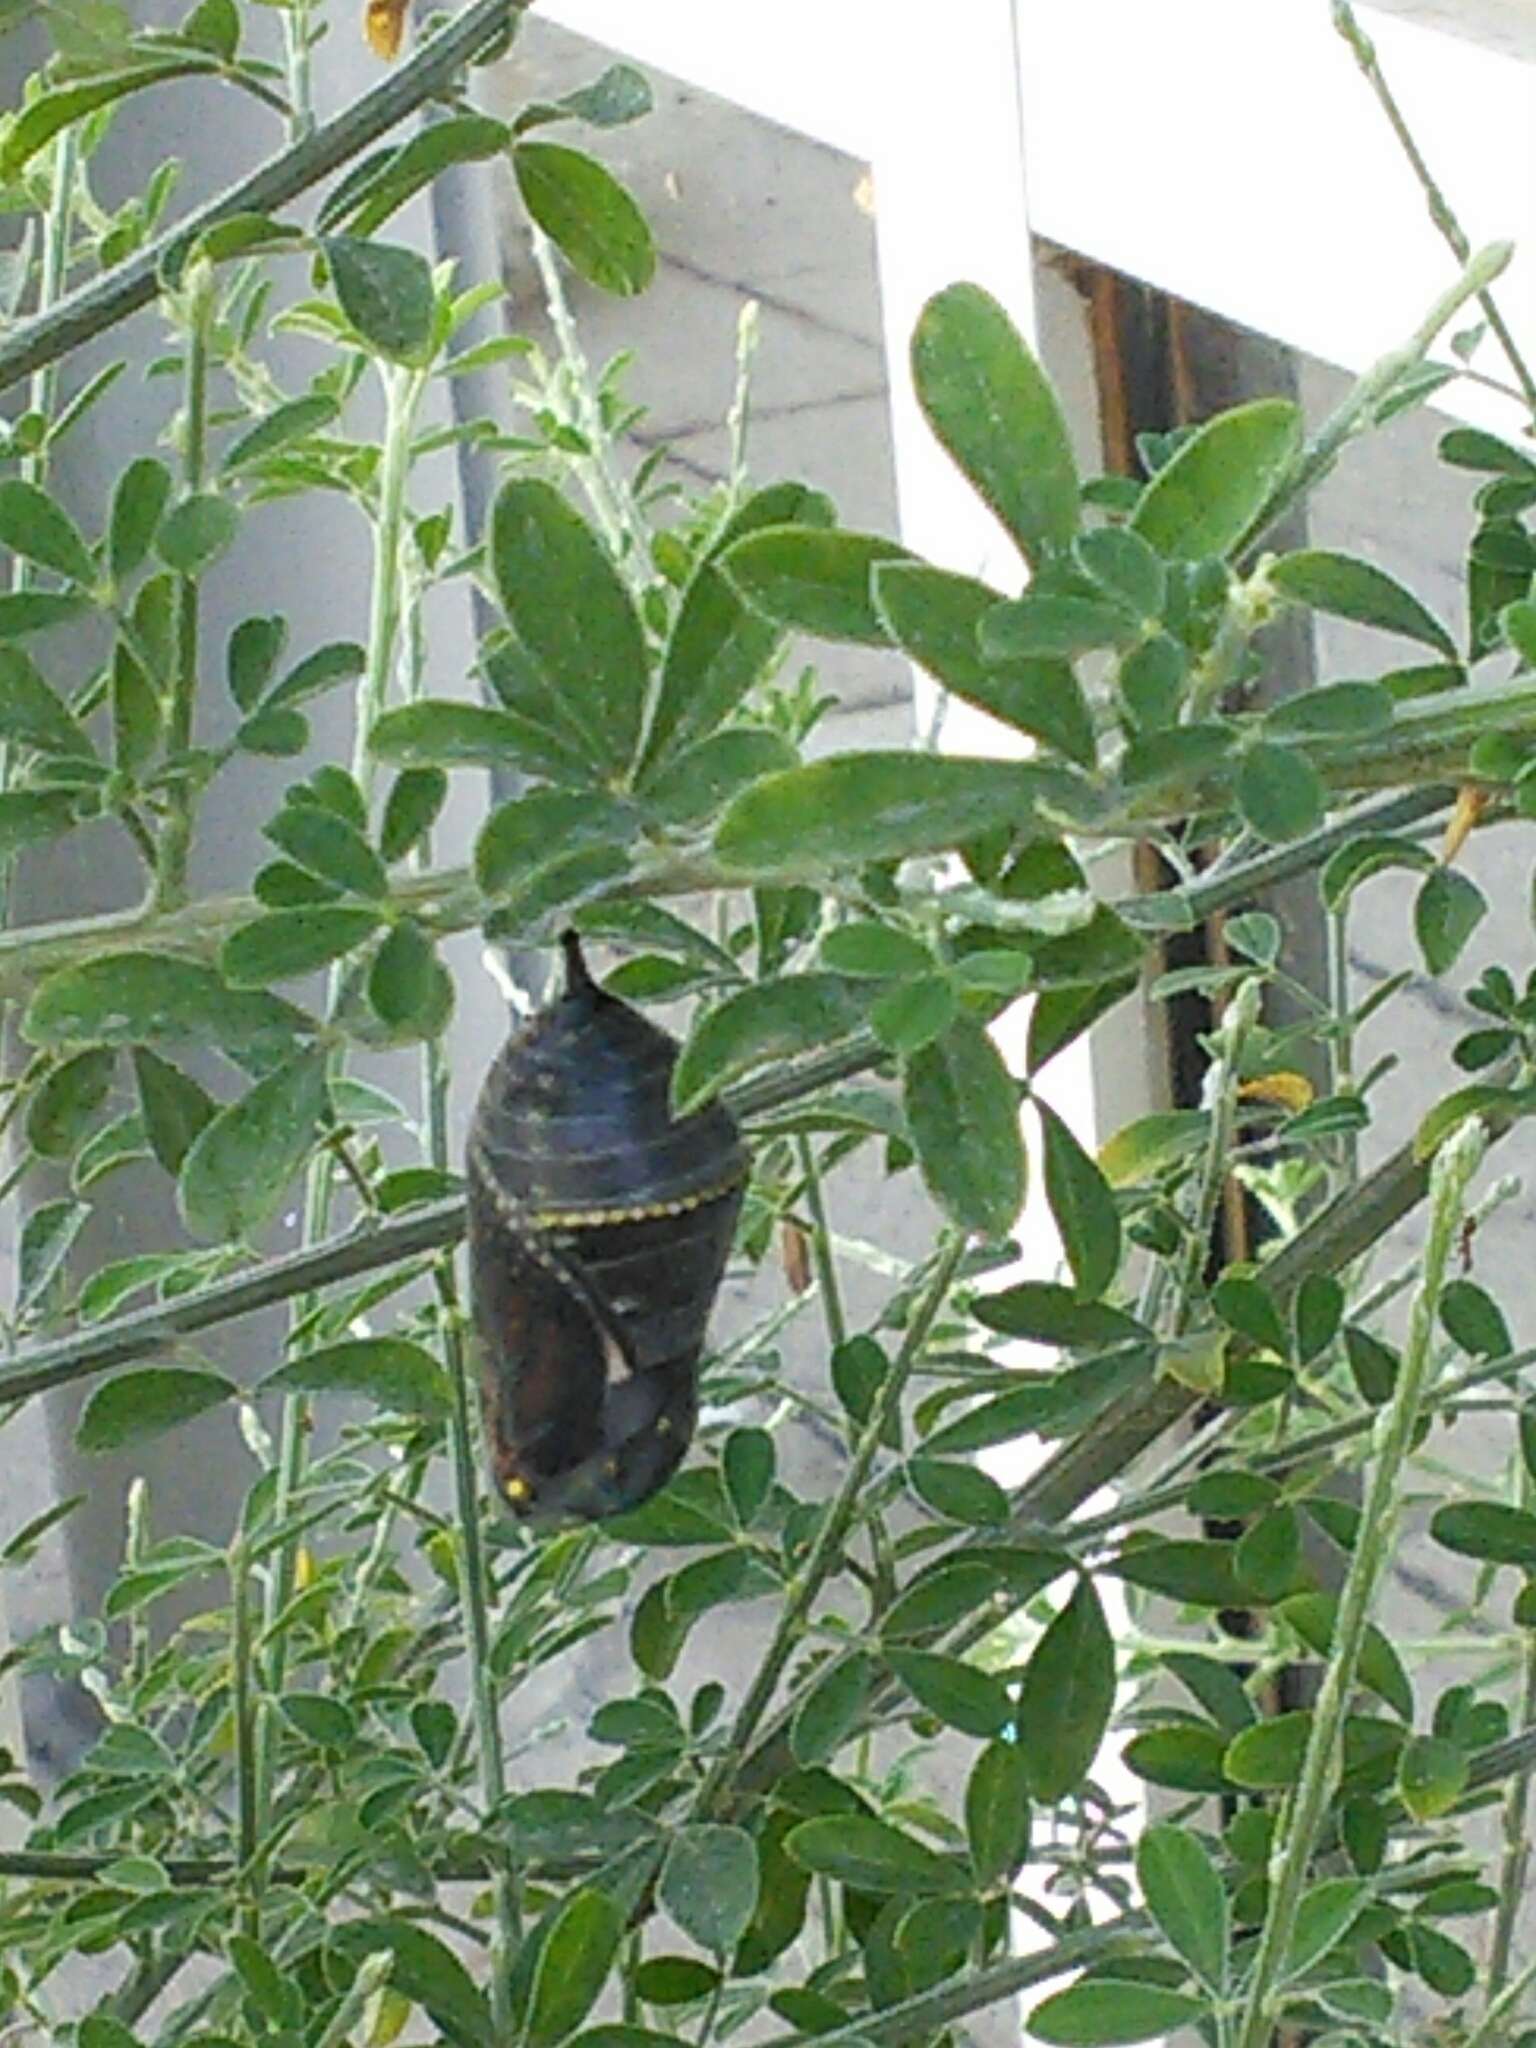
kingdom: Animalia
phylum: Arthropoda
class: Insecta
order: Lepidoptera
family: Nymphalidae
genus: Danaus
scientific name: Danaus plexippus
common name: Monarch
